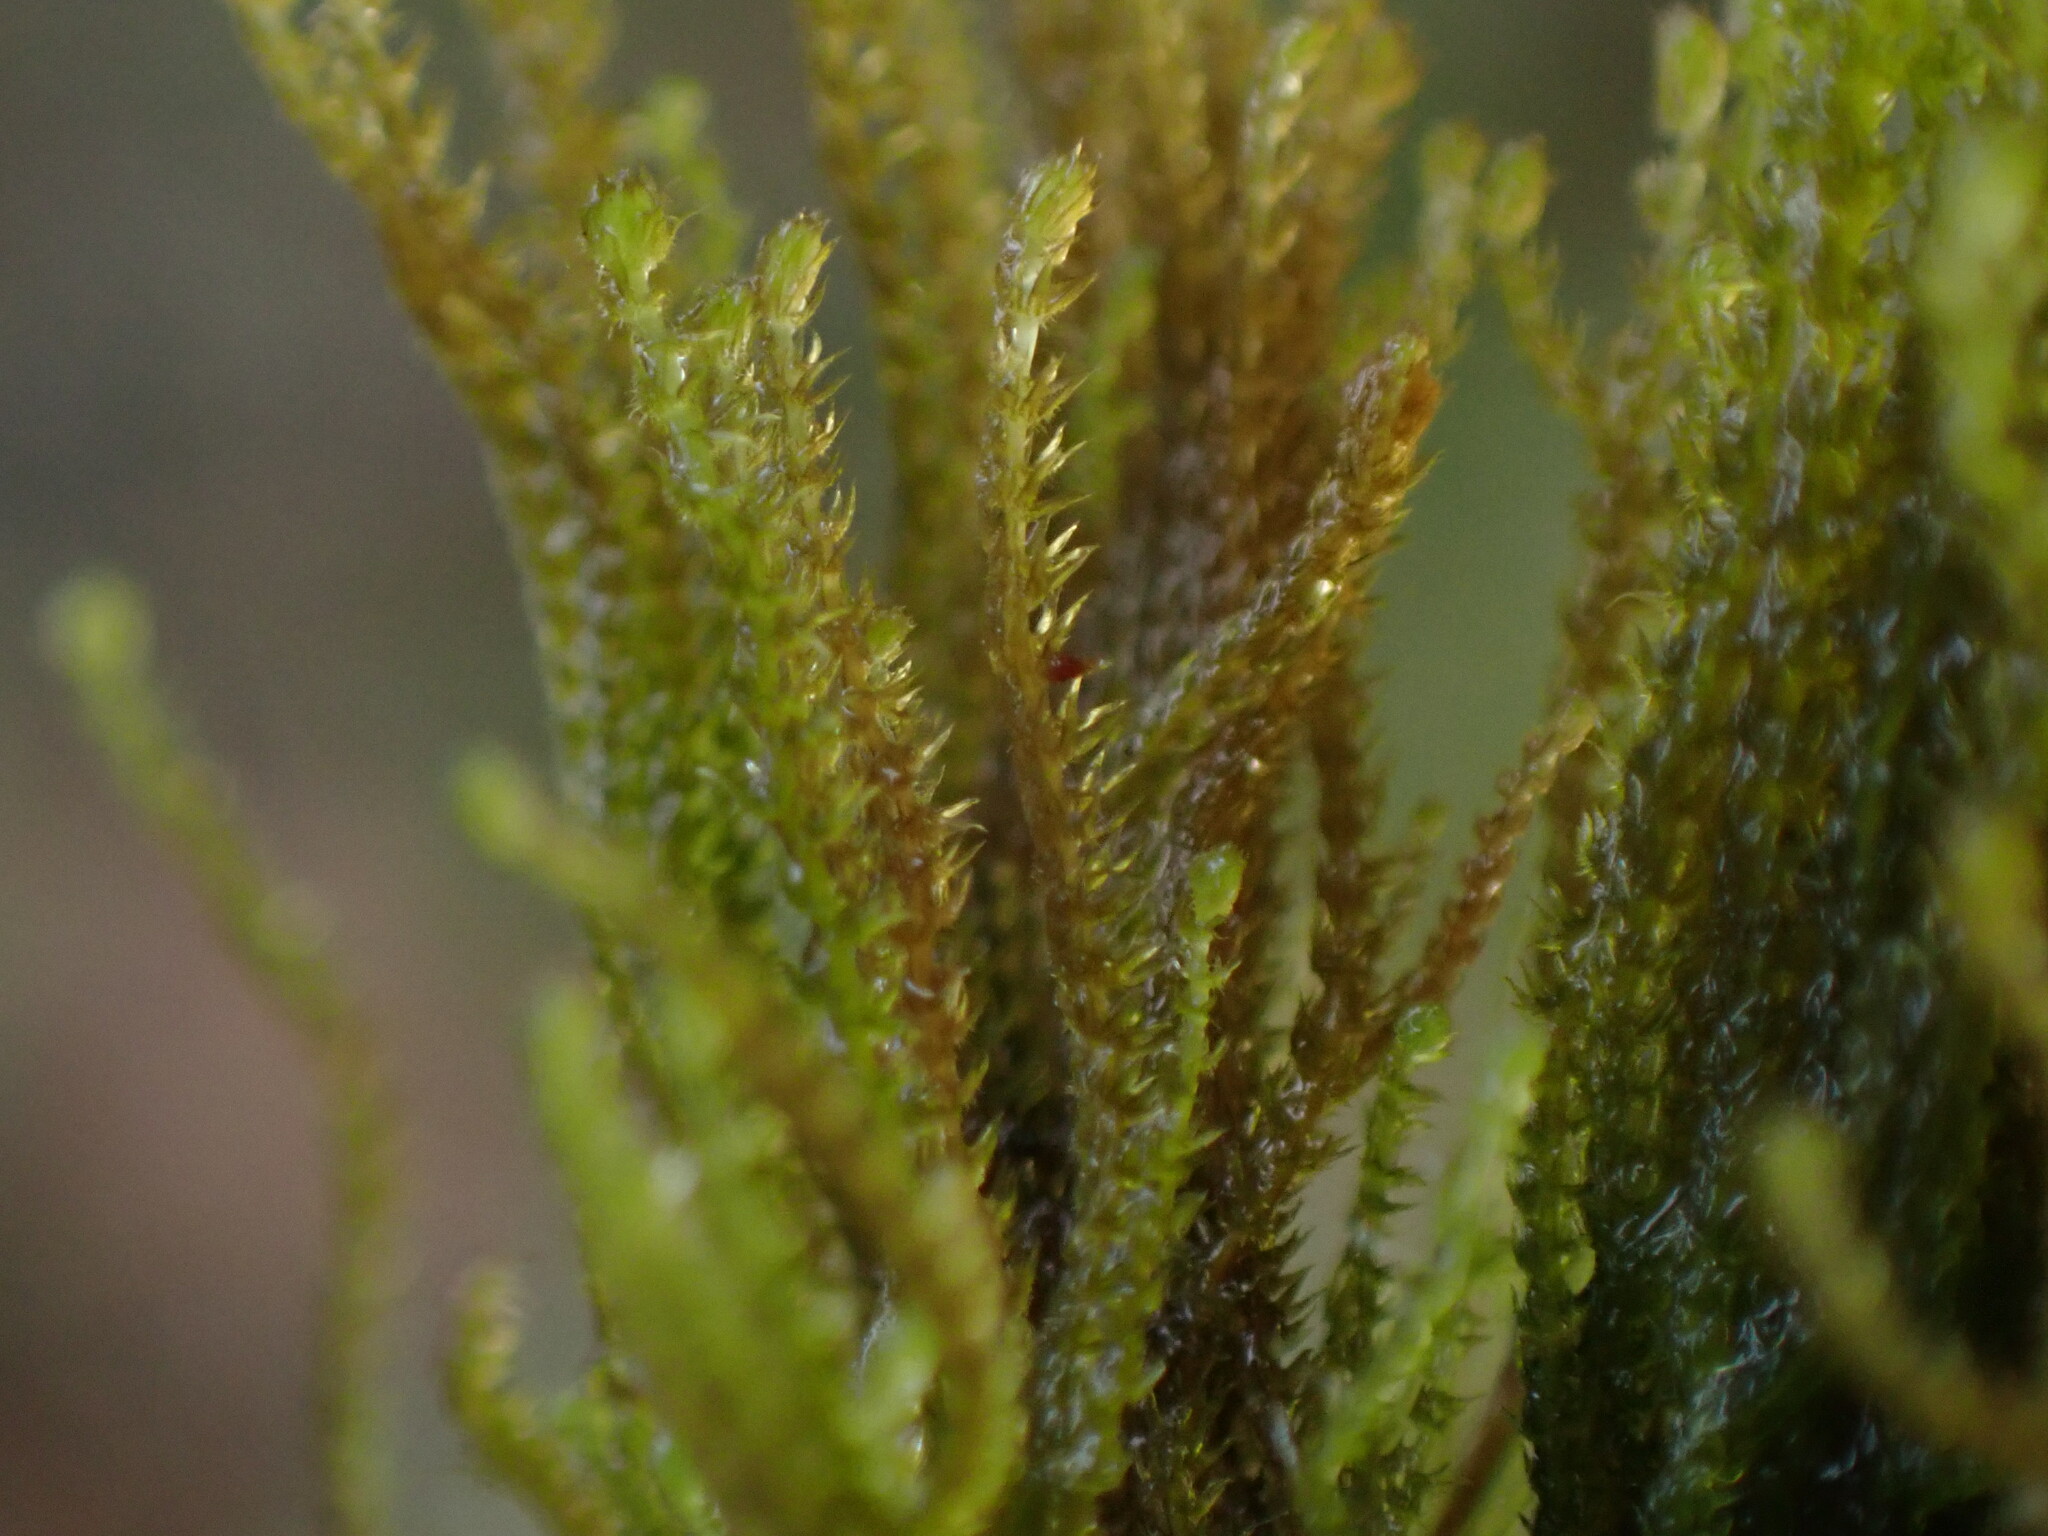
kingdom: Plantae
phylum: Marchantiophyta
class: Jungermanniopsida
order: Jungermanniales
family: Anastrophyllaceae
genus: Tetralophozia
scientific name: Tetralophozia setiformis
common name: Monster pawwort
